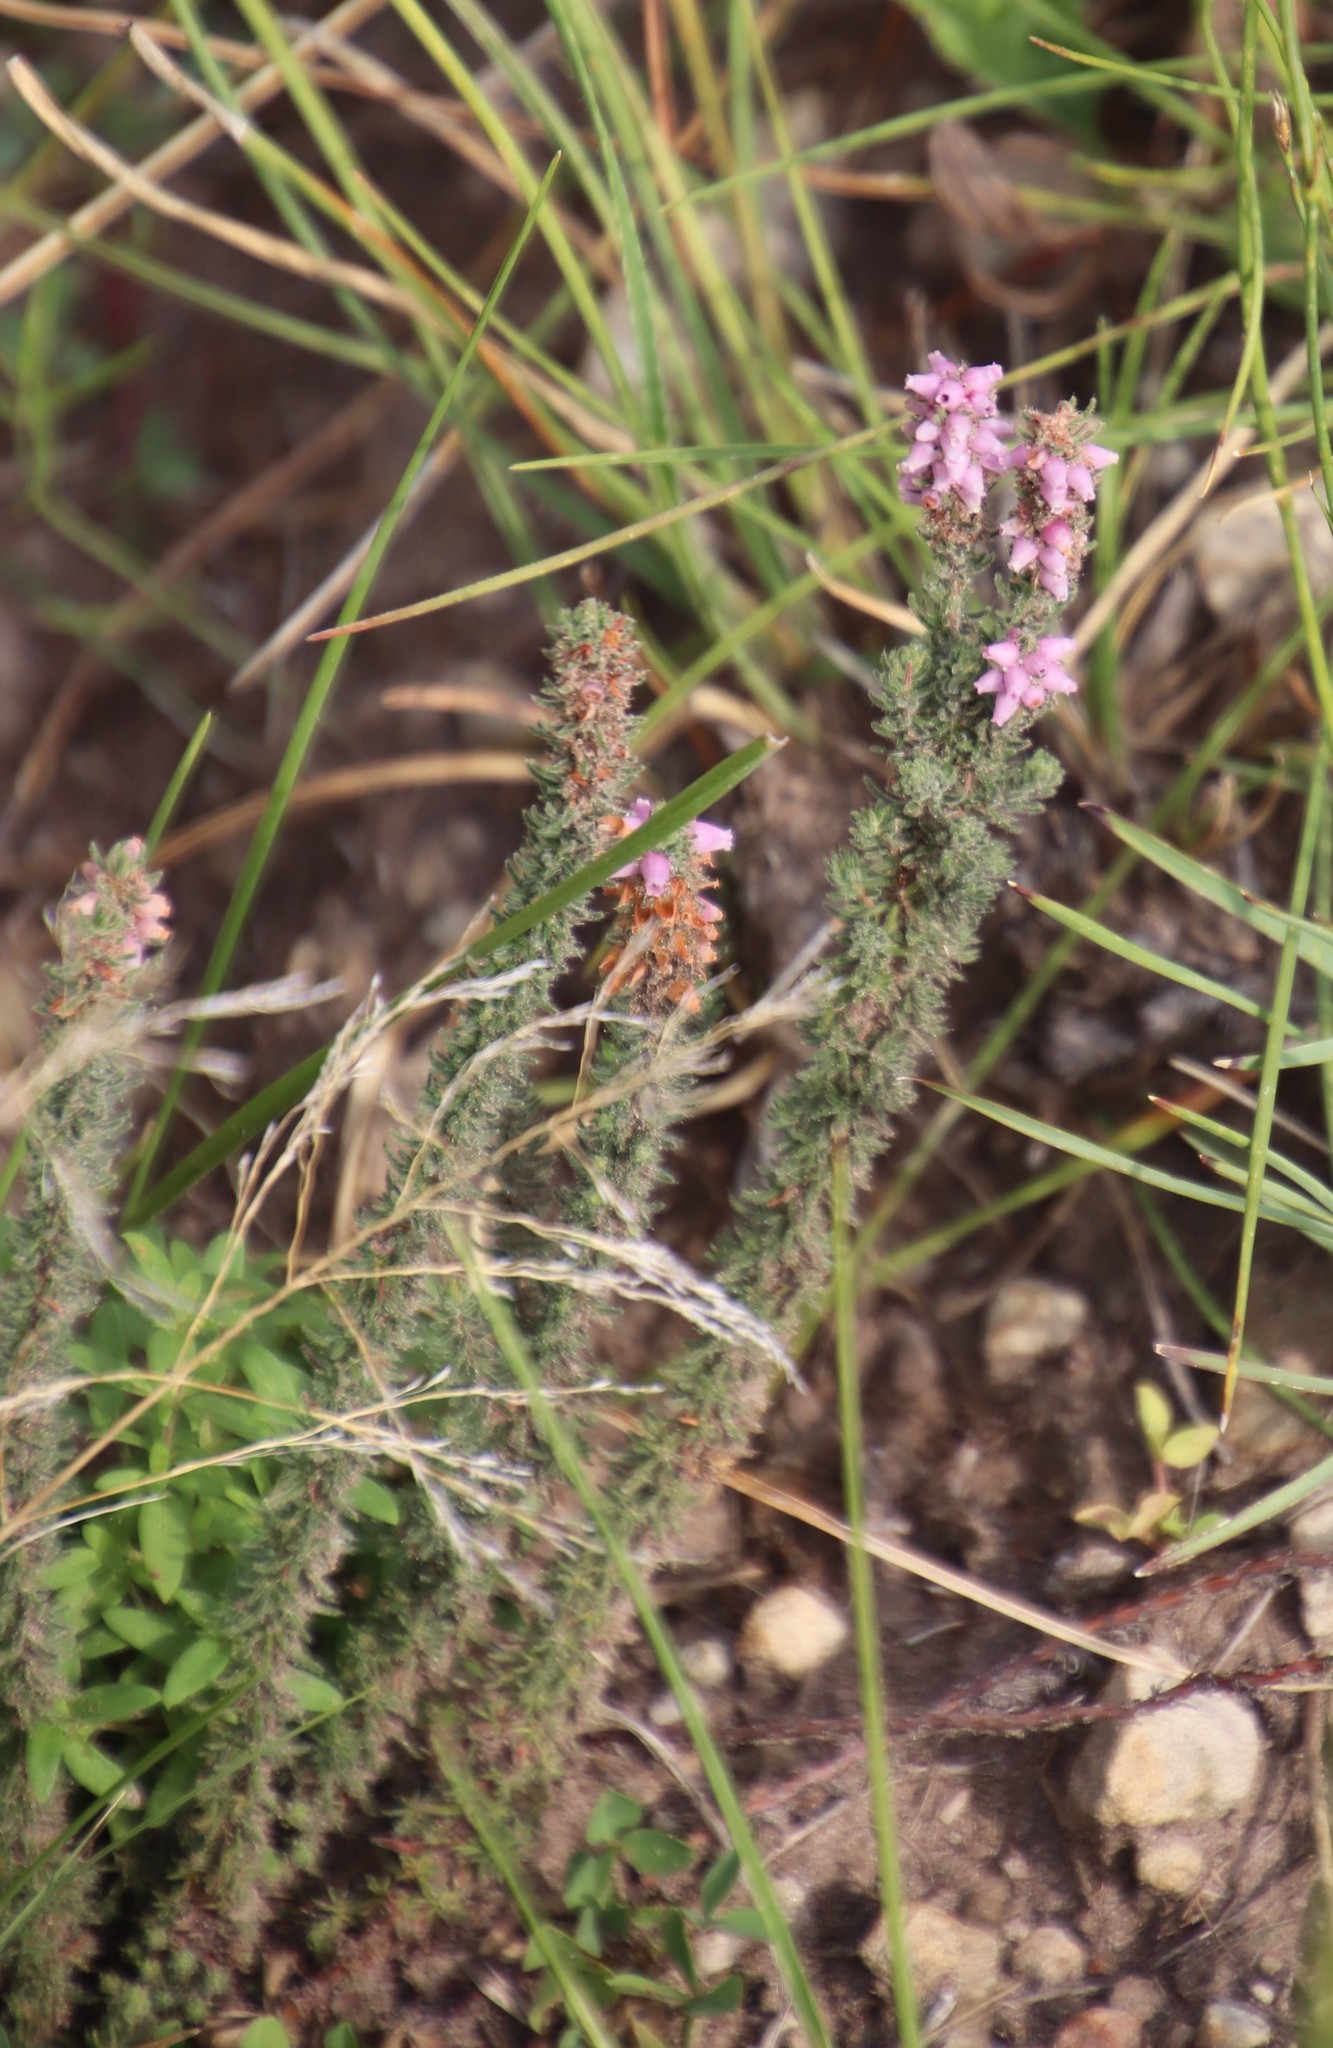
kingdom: Plantae
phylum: Tracheophyta
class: Magnoliopsida
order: Ericales
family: Ericaceae
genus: Erica
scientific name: Erica alopecurus
